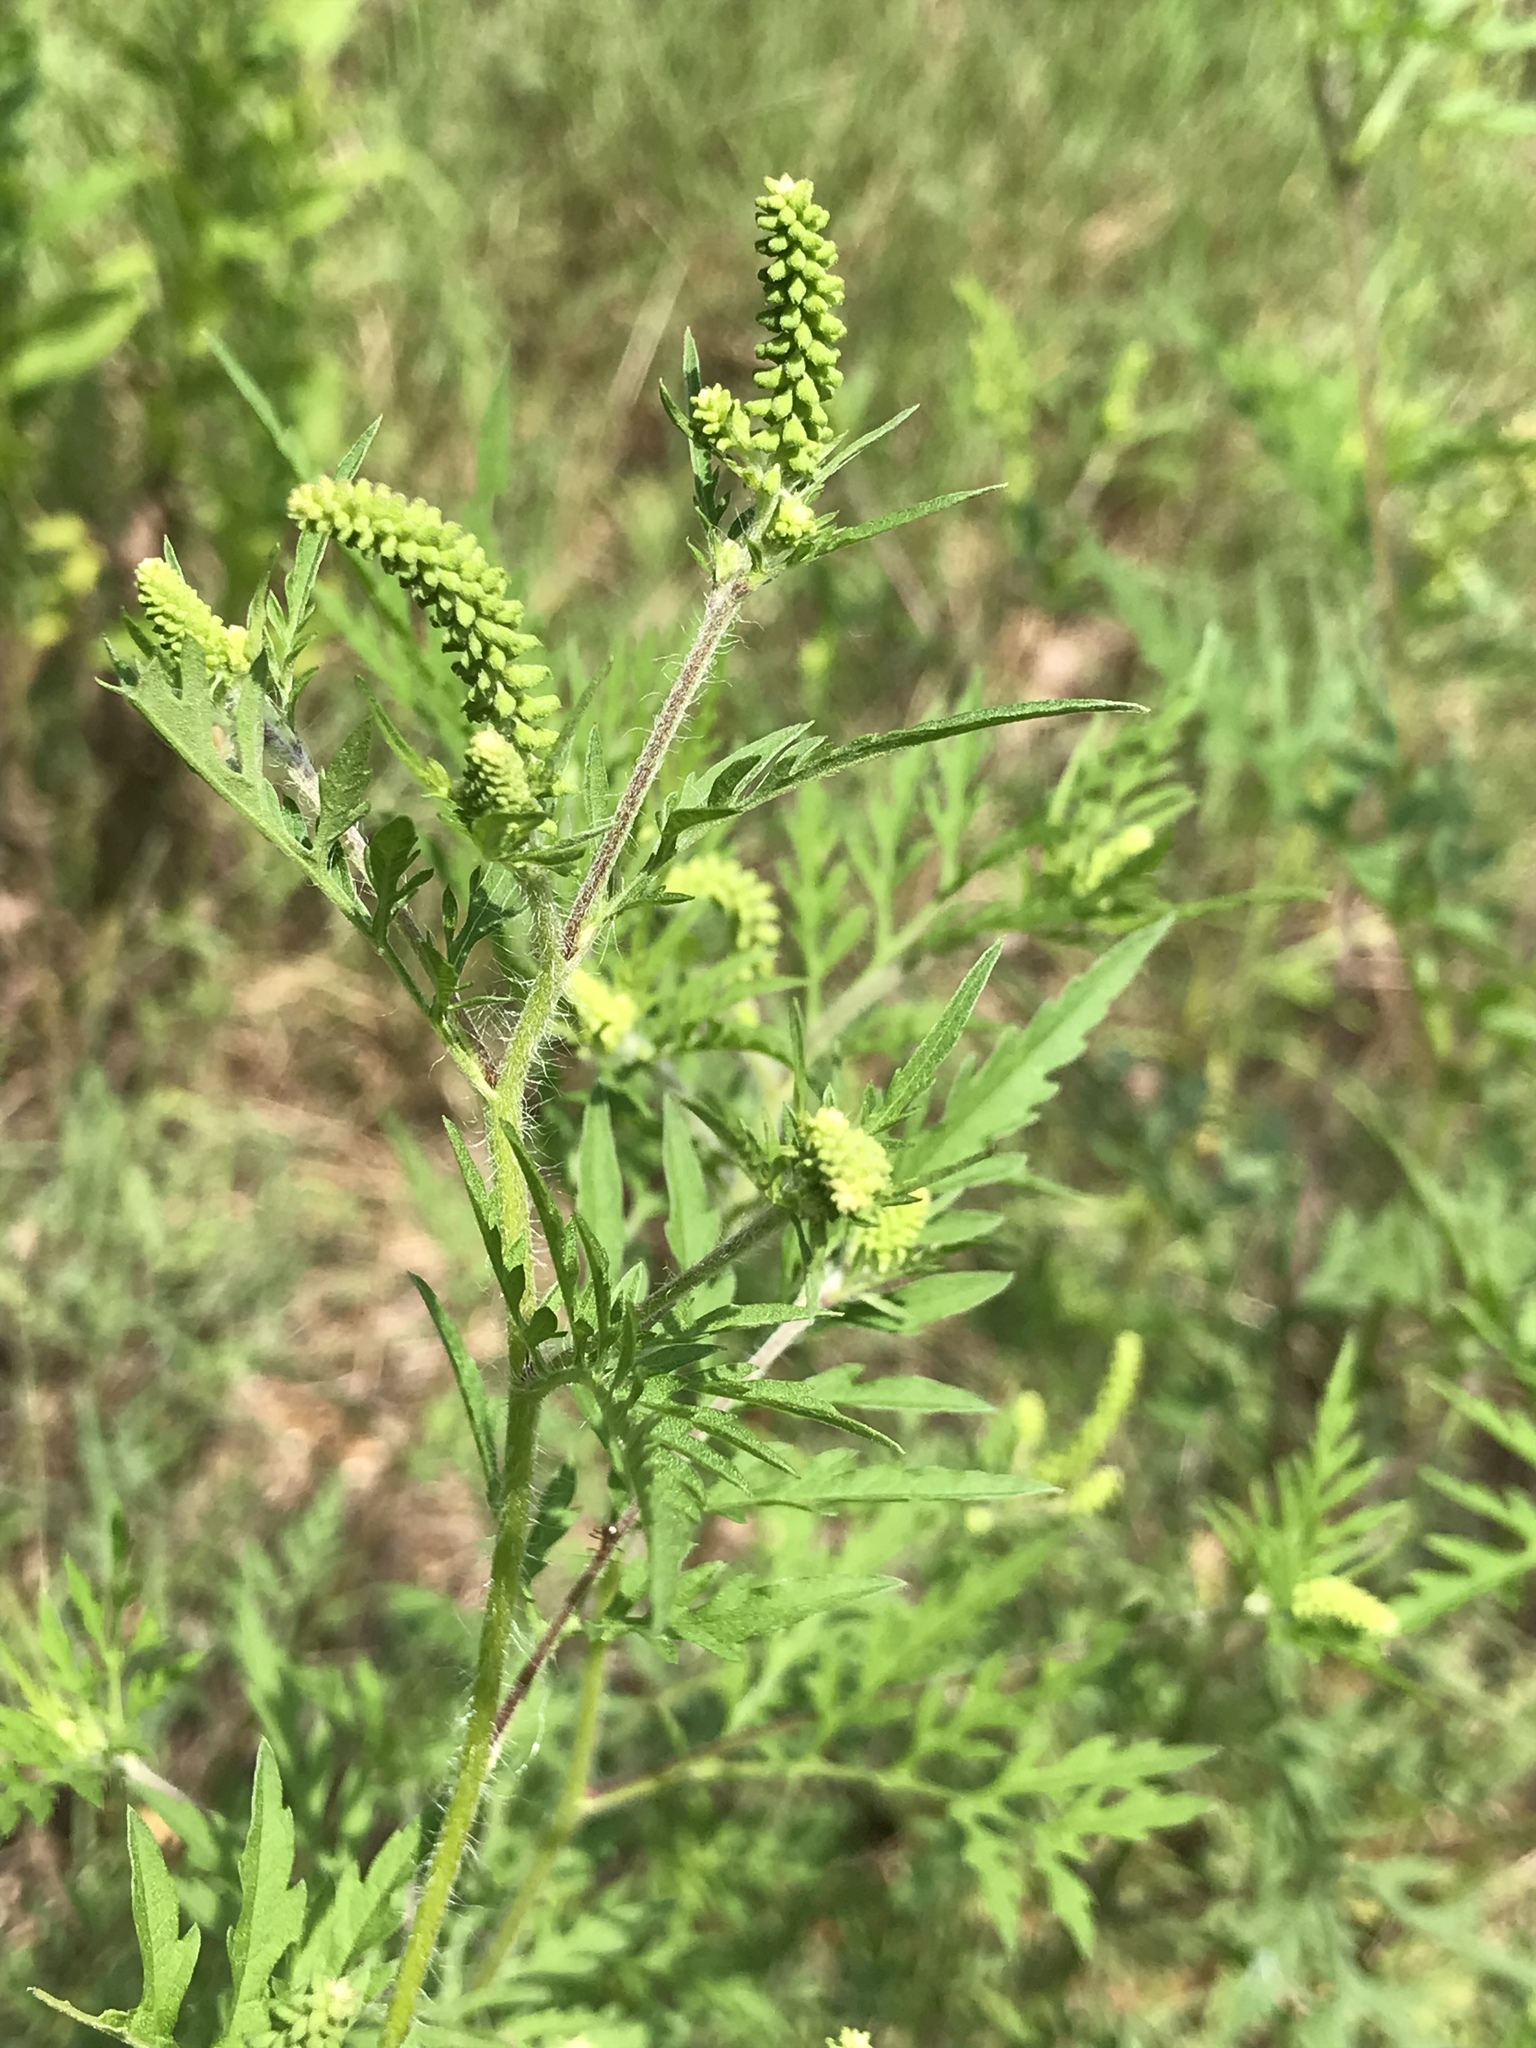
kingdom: Plantae
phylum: Tracheophyta
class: Magnoliopsida
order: Asterales
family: Asteraceae
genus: Ambrosia
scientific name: Ambrosia artemisiifolia
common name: Annual ragweed
